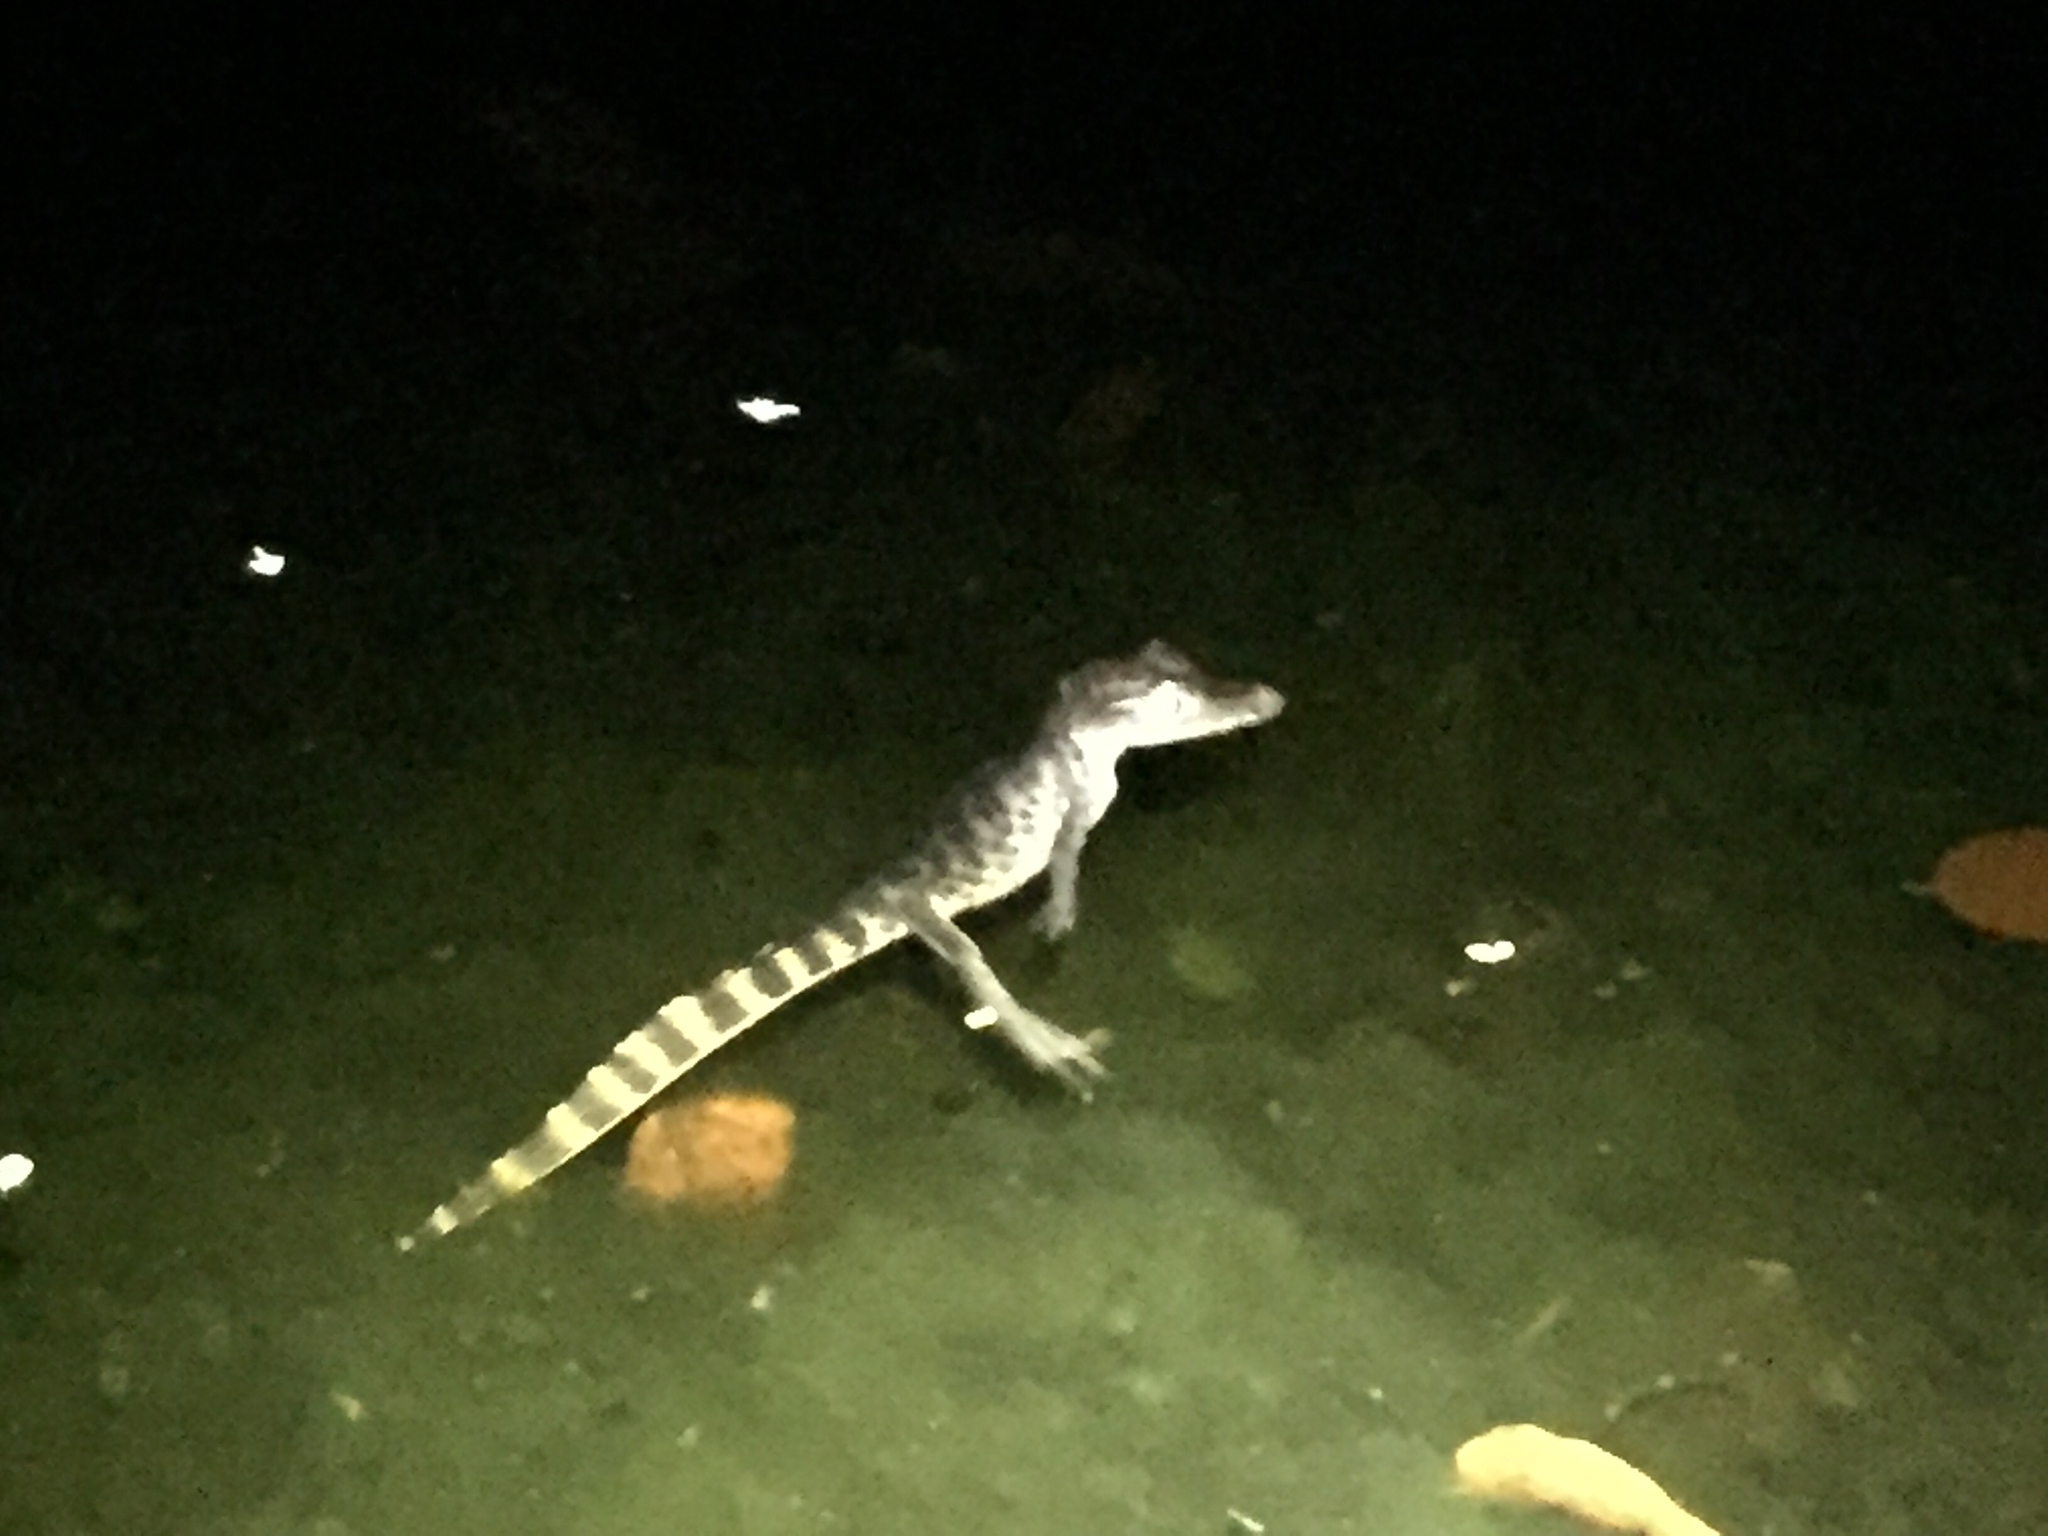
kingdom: Animalia
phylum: Chordata
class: Crocodylia
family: Alligatoridae
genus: Caiman
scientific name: Caiman crocodilus
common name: Common caiman
